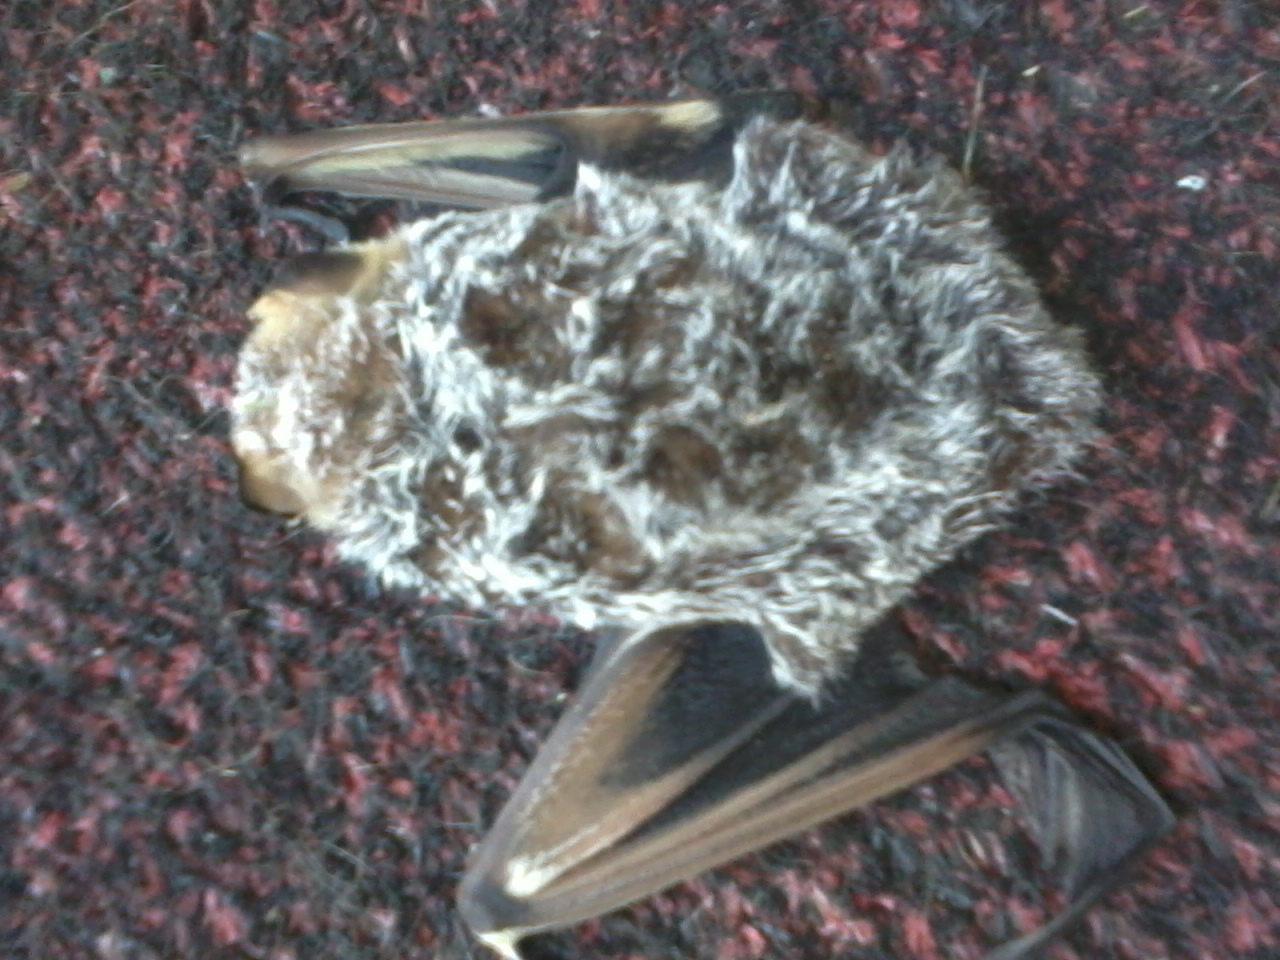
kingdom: Animalia
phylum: Chordata
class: Mammalia
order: Chiroptera
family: Vespertilionidae
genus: Aeorestes
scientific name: Aeorestes cinereus
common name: North american hoary bat
